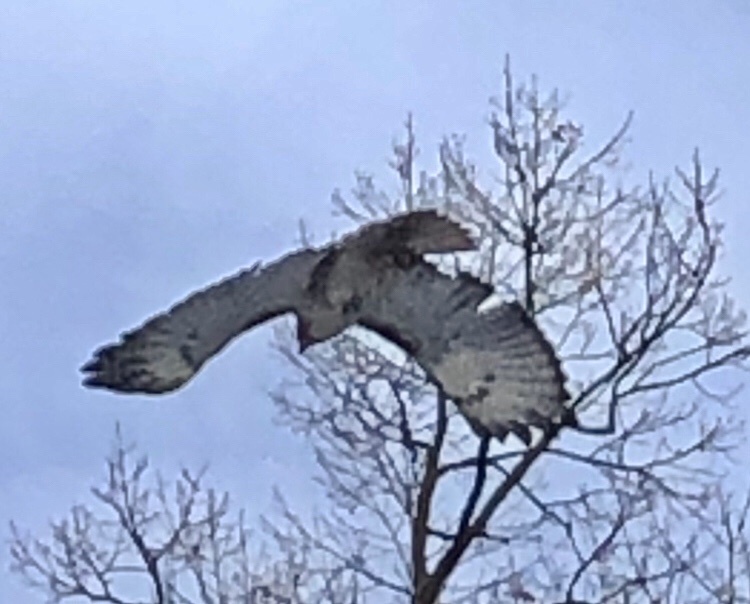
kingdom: Animalia
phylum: Chordata
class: Aves
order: Accipitriformes
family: Accipitridae
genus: Buteo
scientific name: Buteo jamaicensis
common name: Red-tailed hawk
